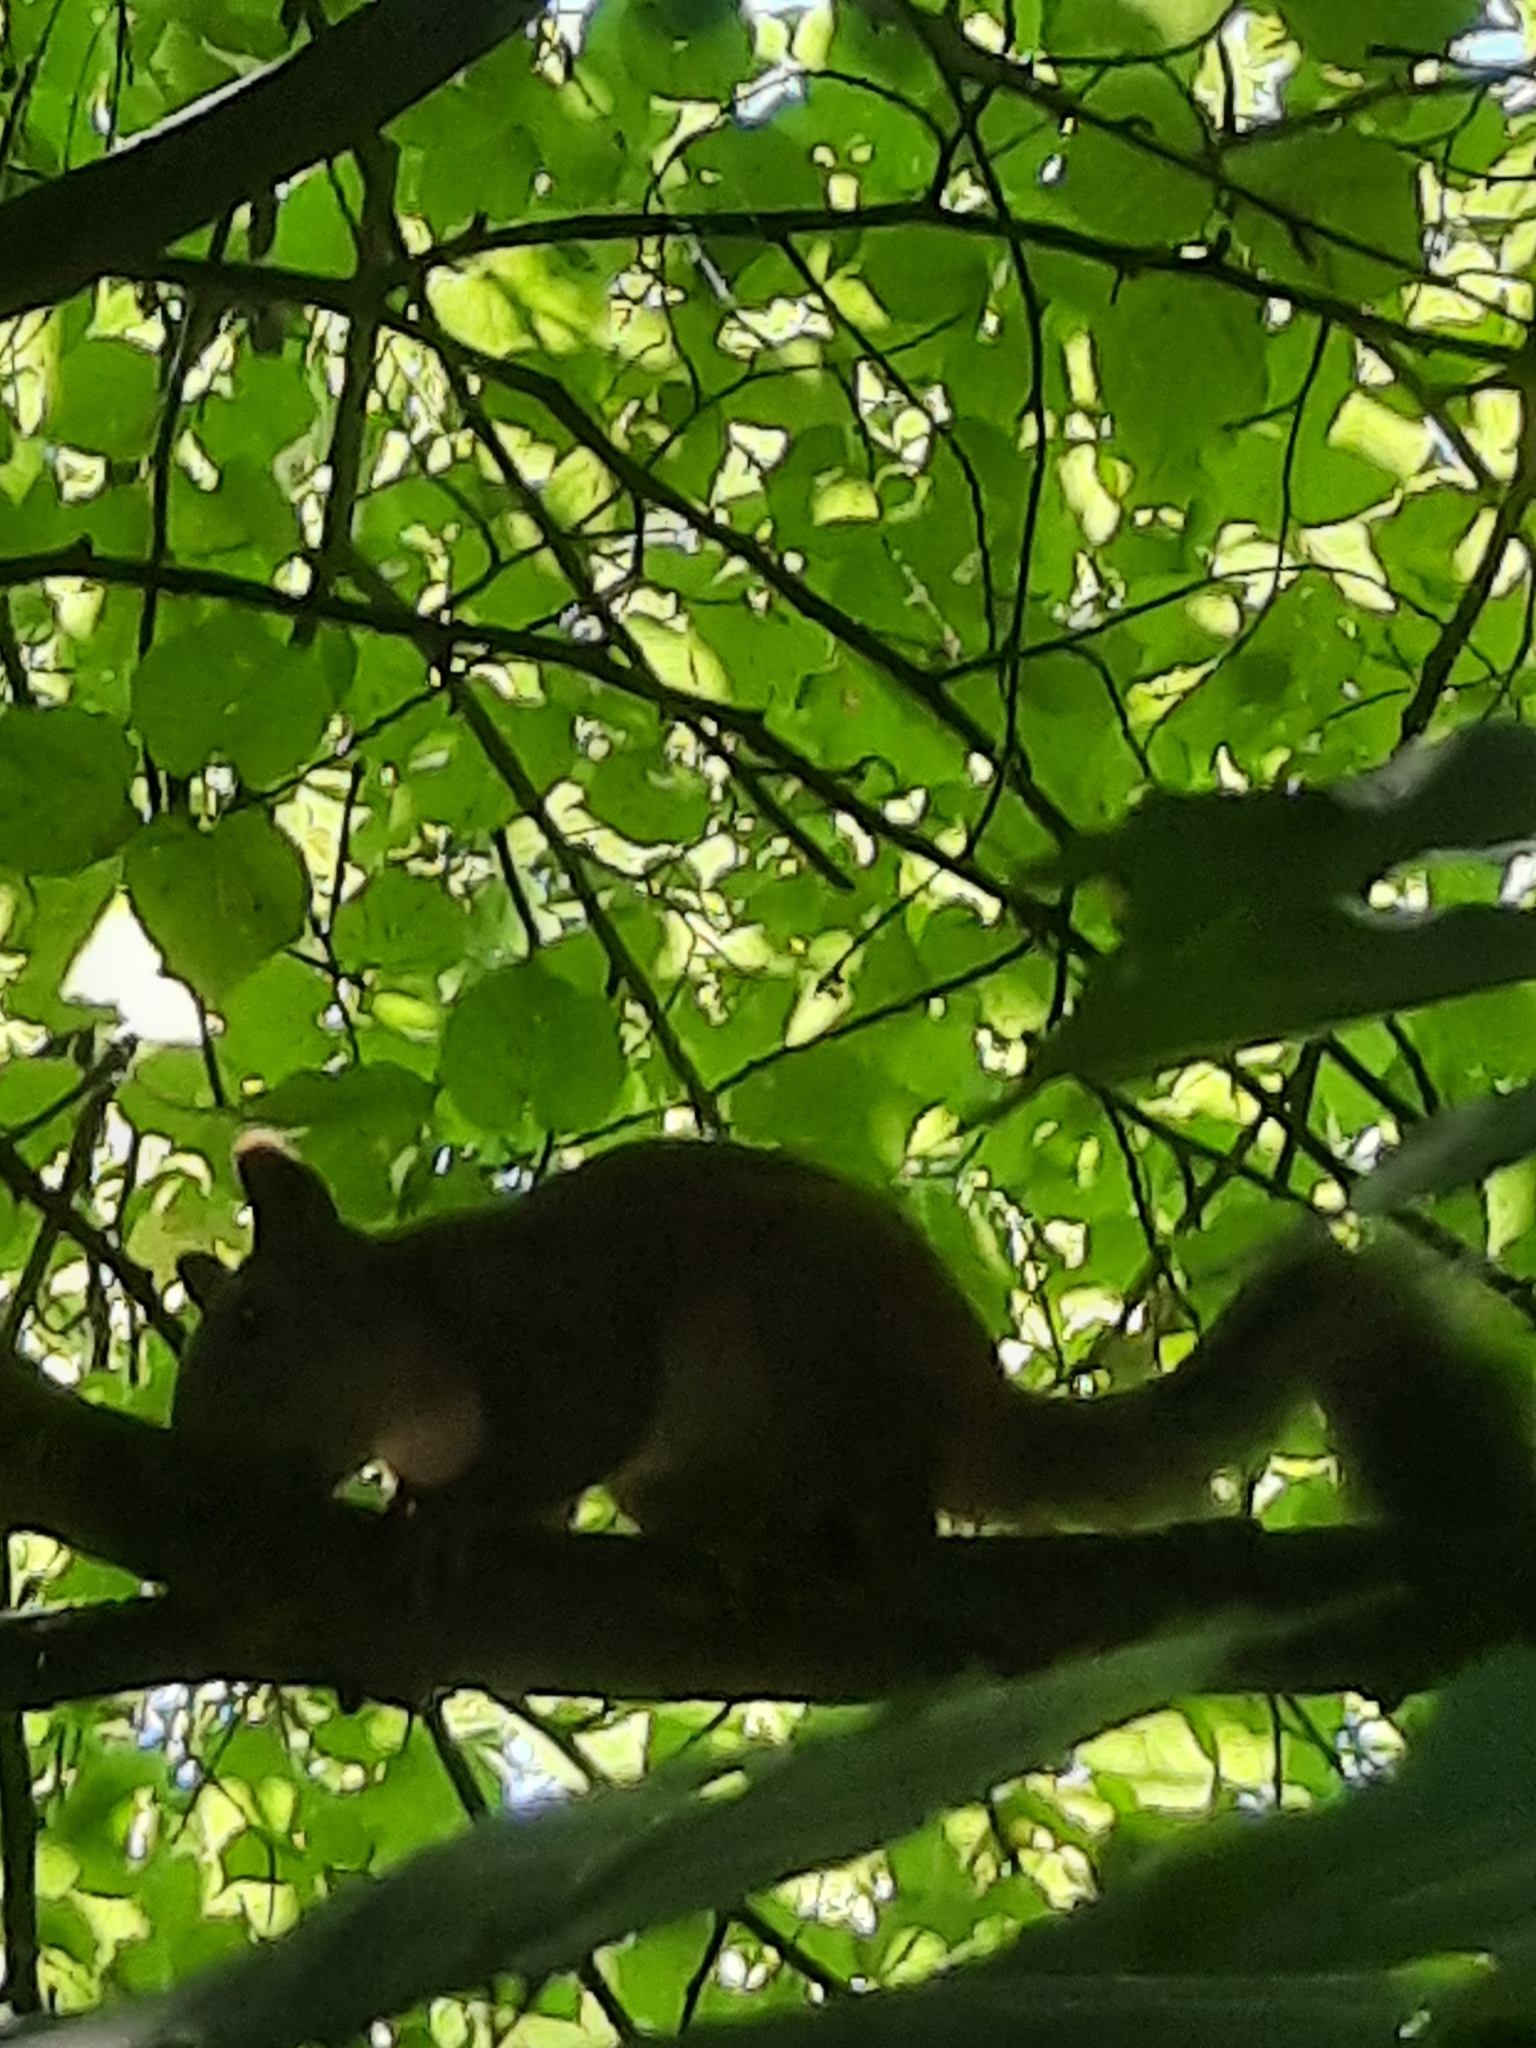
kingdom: Animalia
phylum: Chordata
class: Mammalia
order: Rodentia
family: Sciuridae
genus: Sciurus
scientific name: Sciurus vulgaris
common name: Eurasian red squirrel
